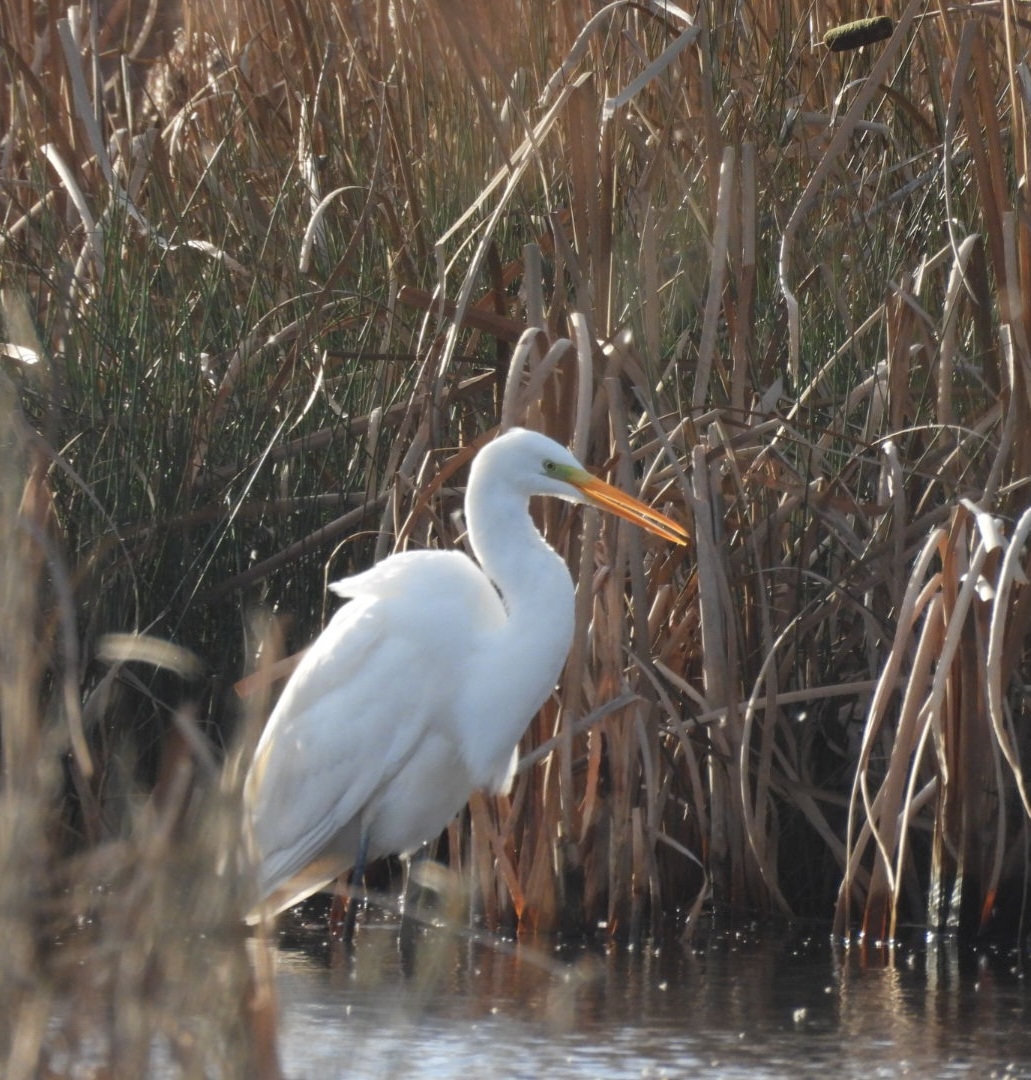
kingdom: Animalia
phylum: Chordata
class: Aves
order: Pelecaniformes
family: Ardeidae
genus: Ardea
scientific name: Ardea alba
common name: Great egret
